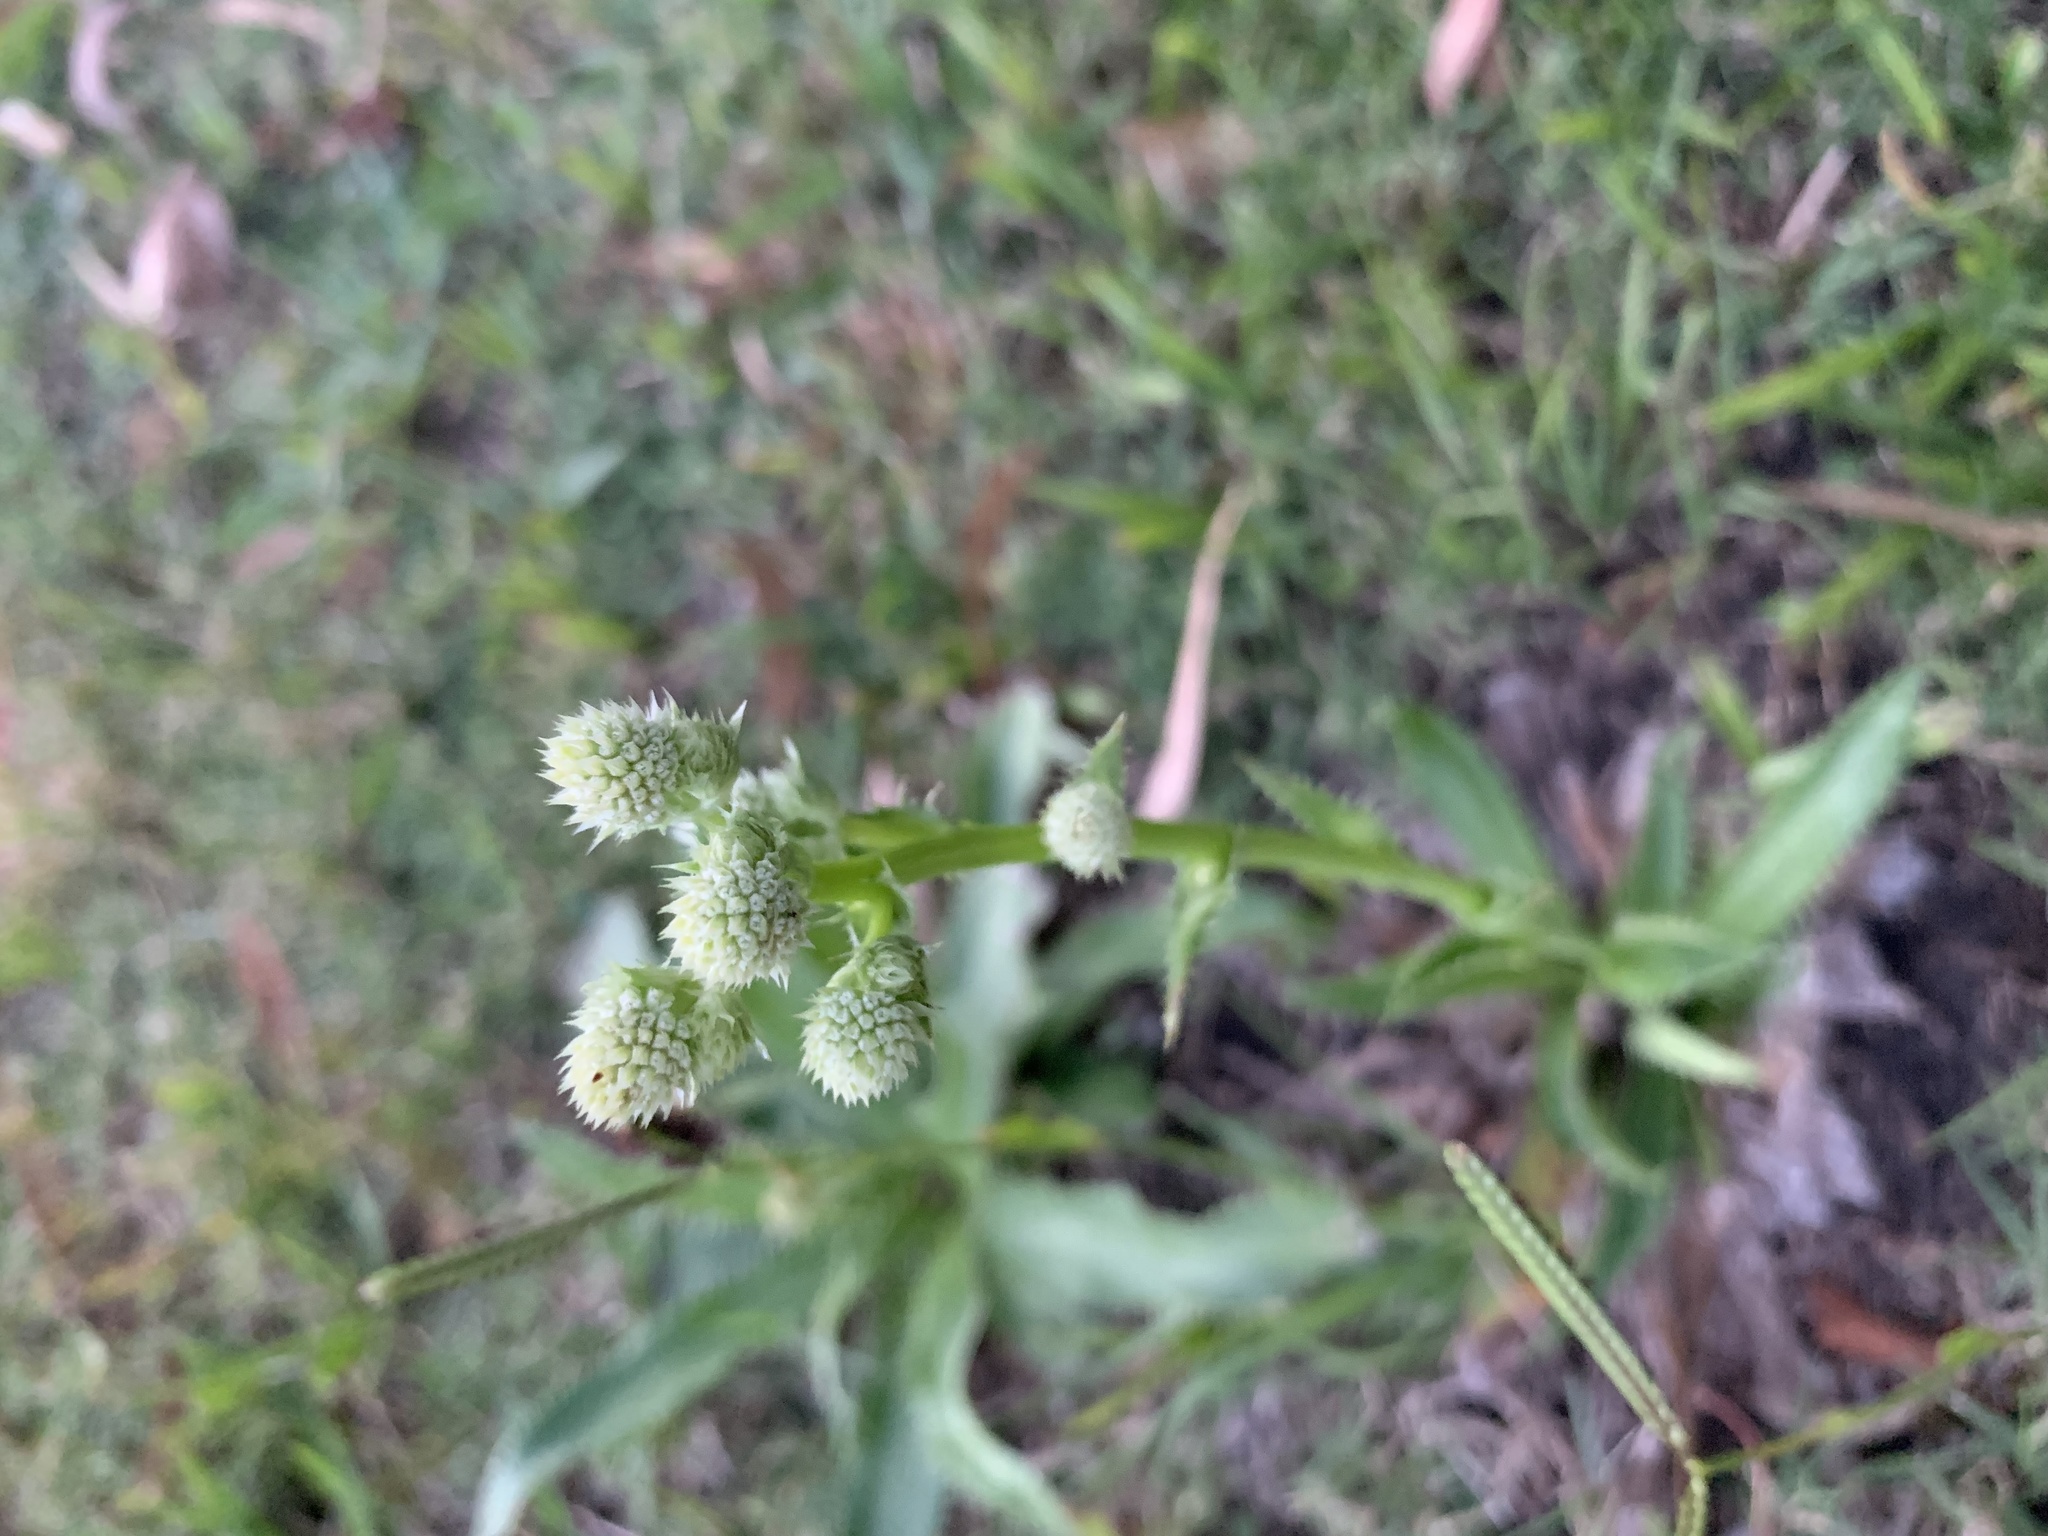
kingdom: Plantae
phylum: Tracheophyta
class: Magnoliopsida
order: Apiales
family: Apiaceae
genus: Eryngium
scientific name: Eryngium elegans
